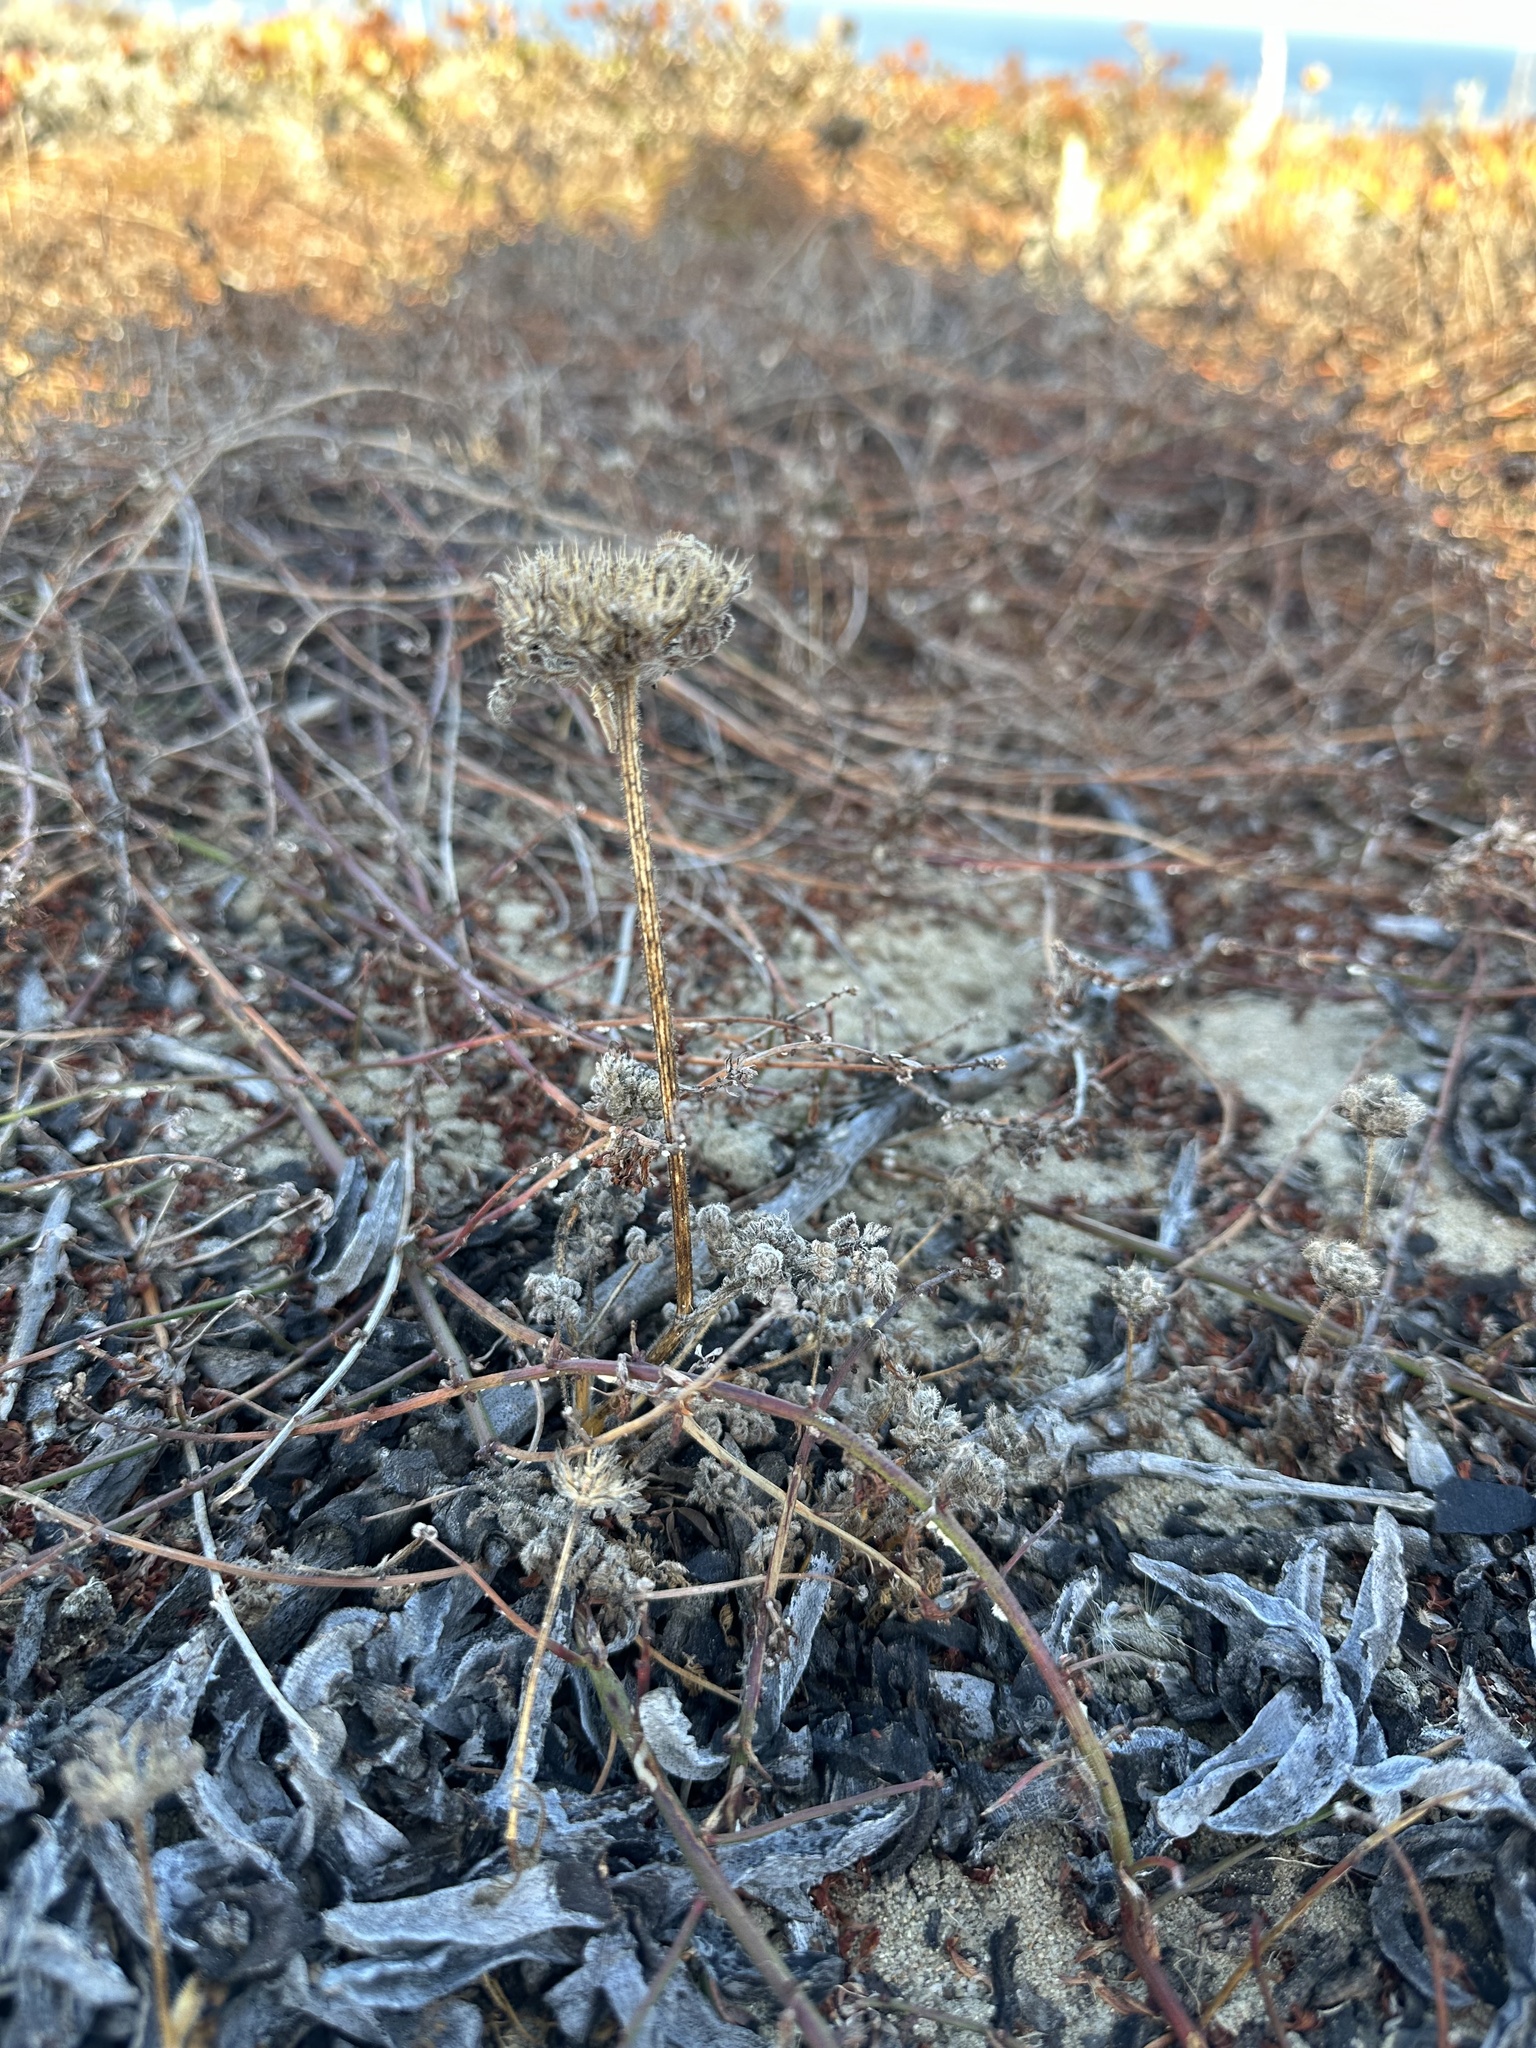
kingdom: Plantae
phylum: Tracheophyta
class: Magnoliopsida
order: Apiales
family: Apiaceae
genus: Daucus
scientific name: Daucus pusillus
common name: Southwest wild carrot
